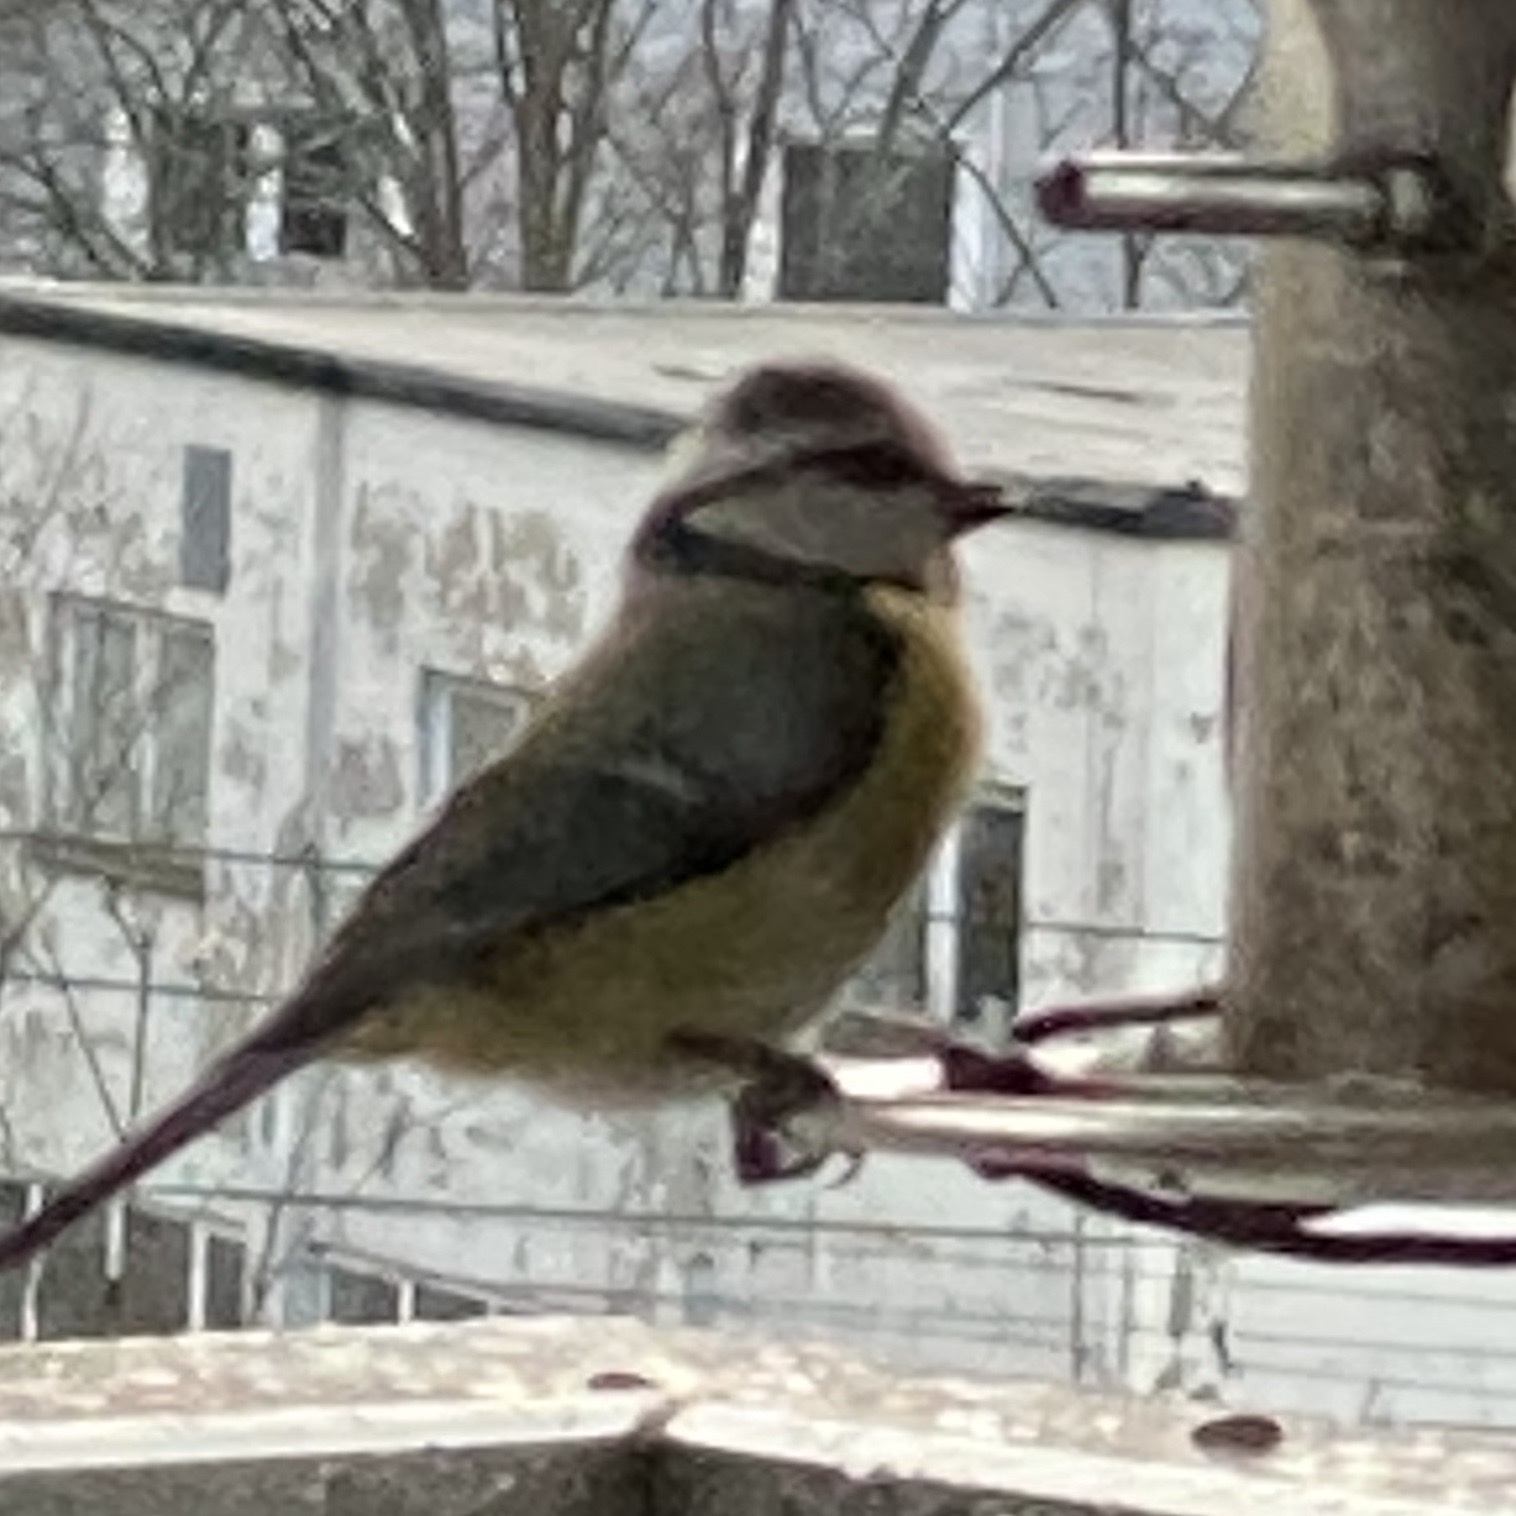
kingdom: Animalia
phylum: Chordata
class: Aves
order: Passeriformes
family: Paridae
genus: Cyanistes
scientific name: Cyanistes caeruleus
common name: Eurasian blue tit
